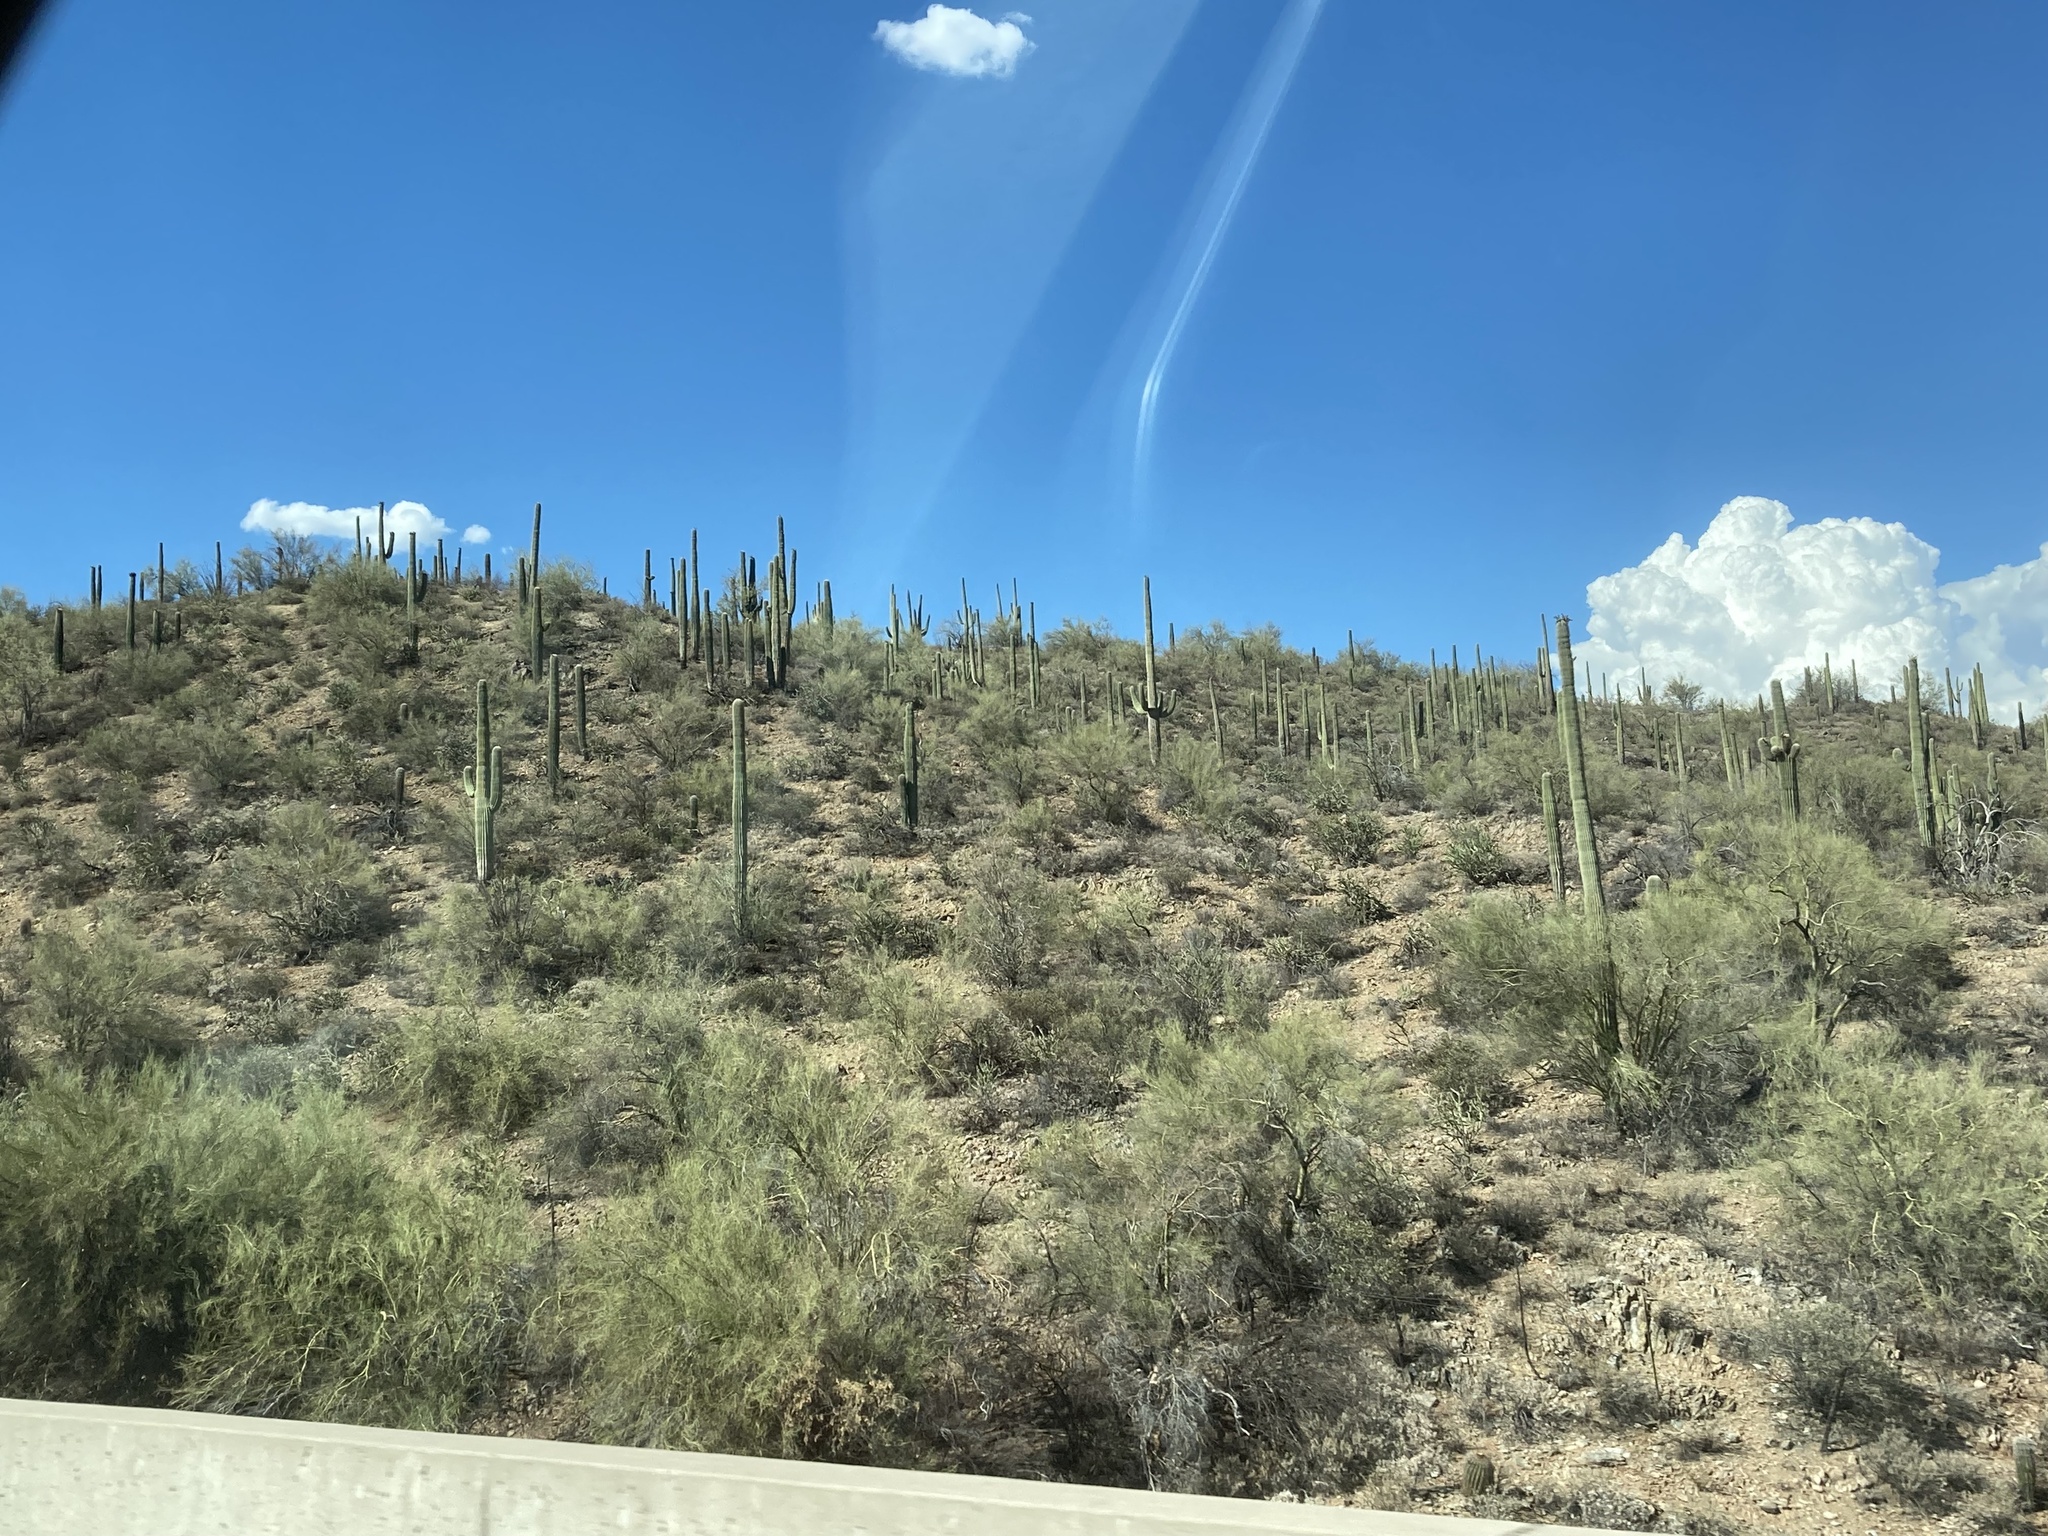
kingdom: Plantae
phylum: Tracheophyta
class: Magnoliopsida
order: Caryophyllales
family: Cactaceae
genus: Carnegiea
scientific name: Carnegiea gigantea
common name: Saguaro
